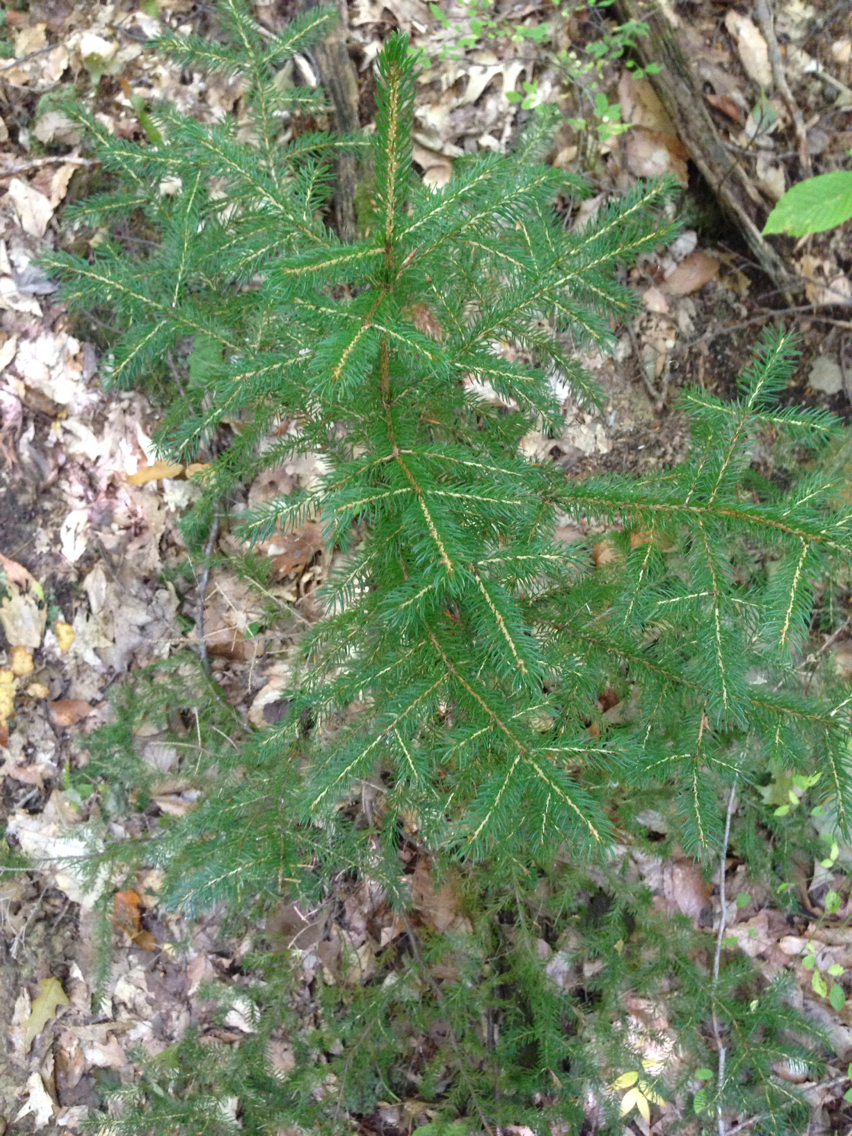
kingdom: Plantae
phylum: Tracheophyta
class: Pinopsida
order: Pinales
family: Pinaceae
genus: Picea
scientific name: Picea rubens
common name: Red spruce
